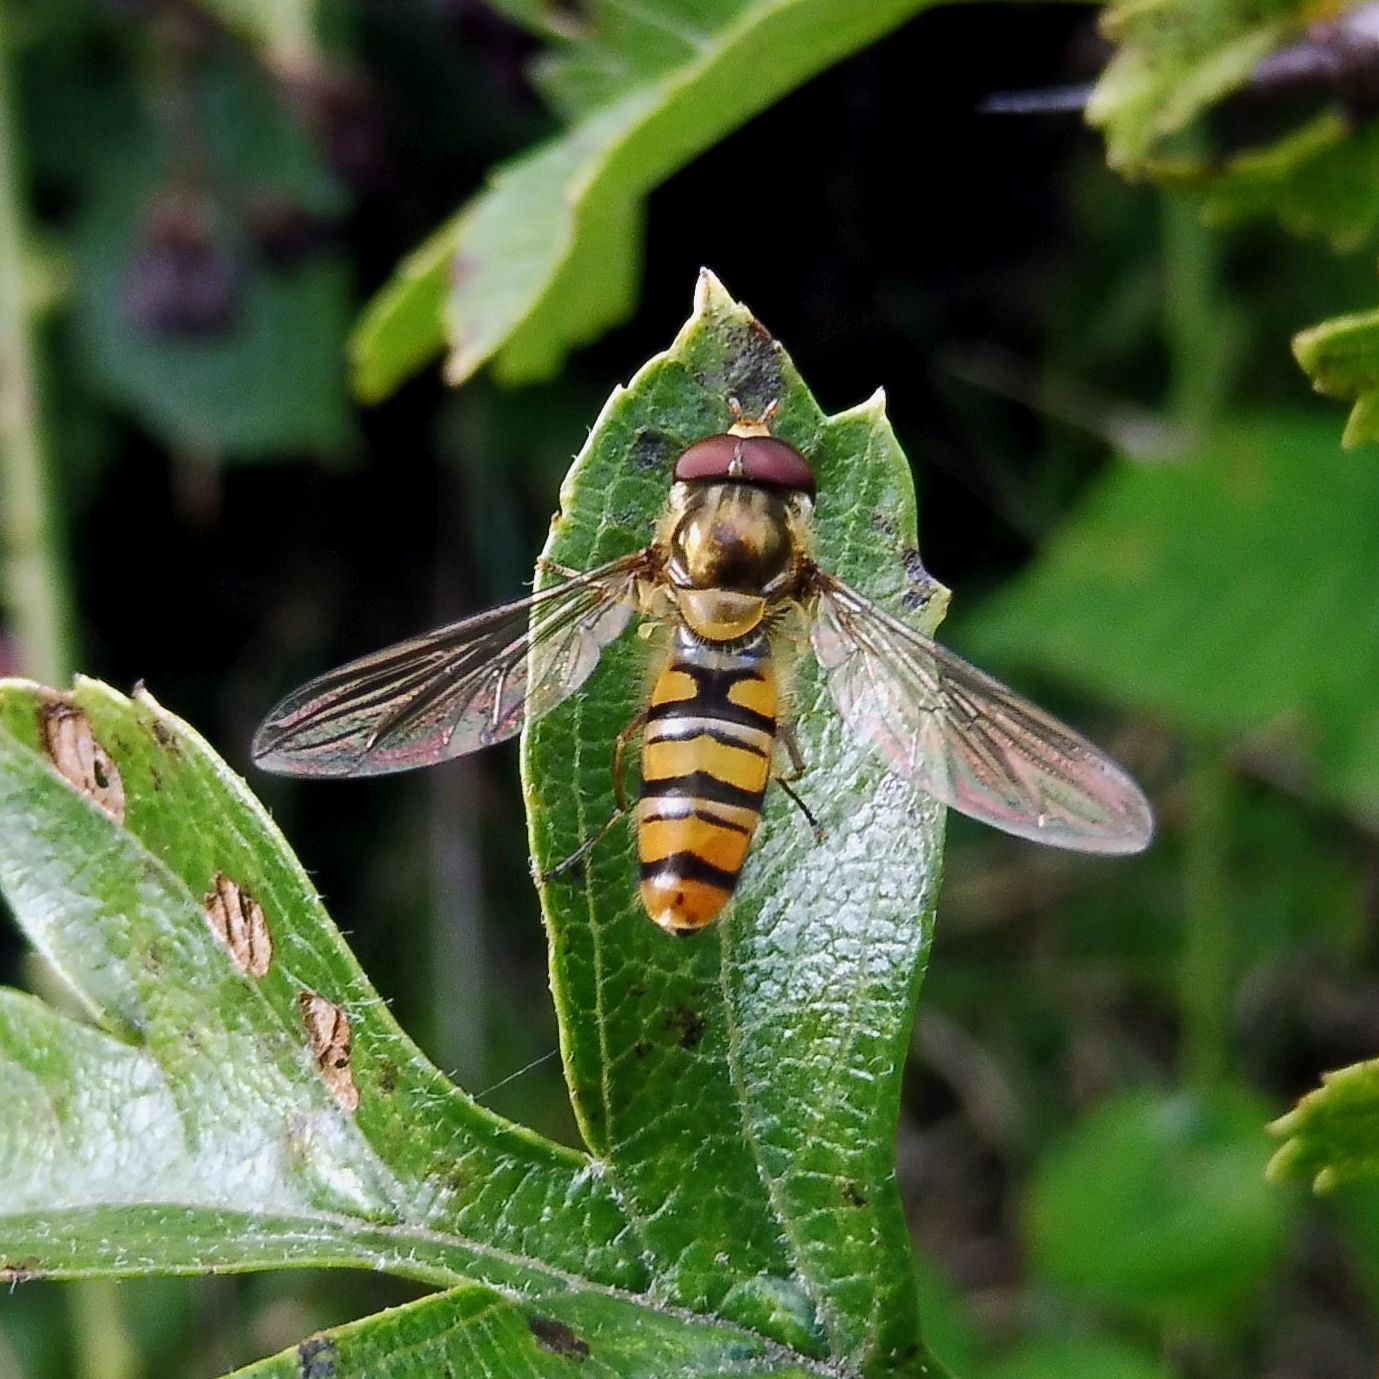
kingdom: Animalia
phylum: Arthropoda
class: Insecta
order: Diptera
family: Syrphidae
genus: Episyrphus
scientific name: Episyrphus balteatus
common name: Marmalade hoverfly
